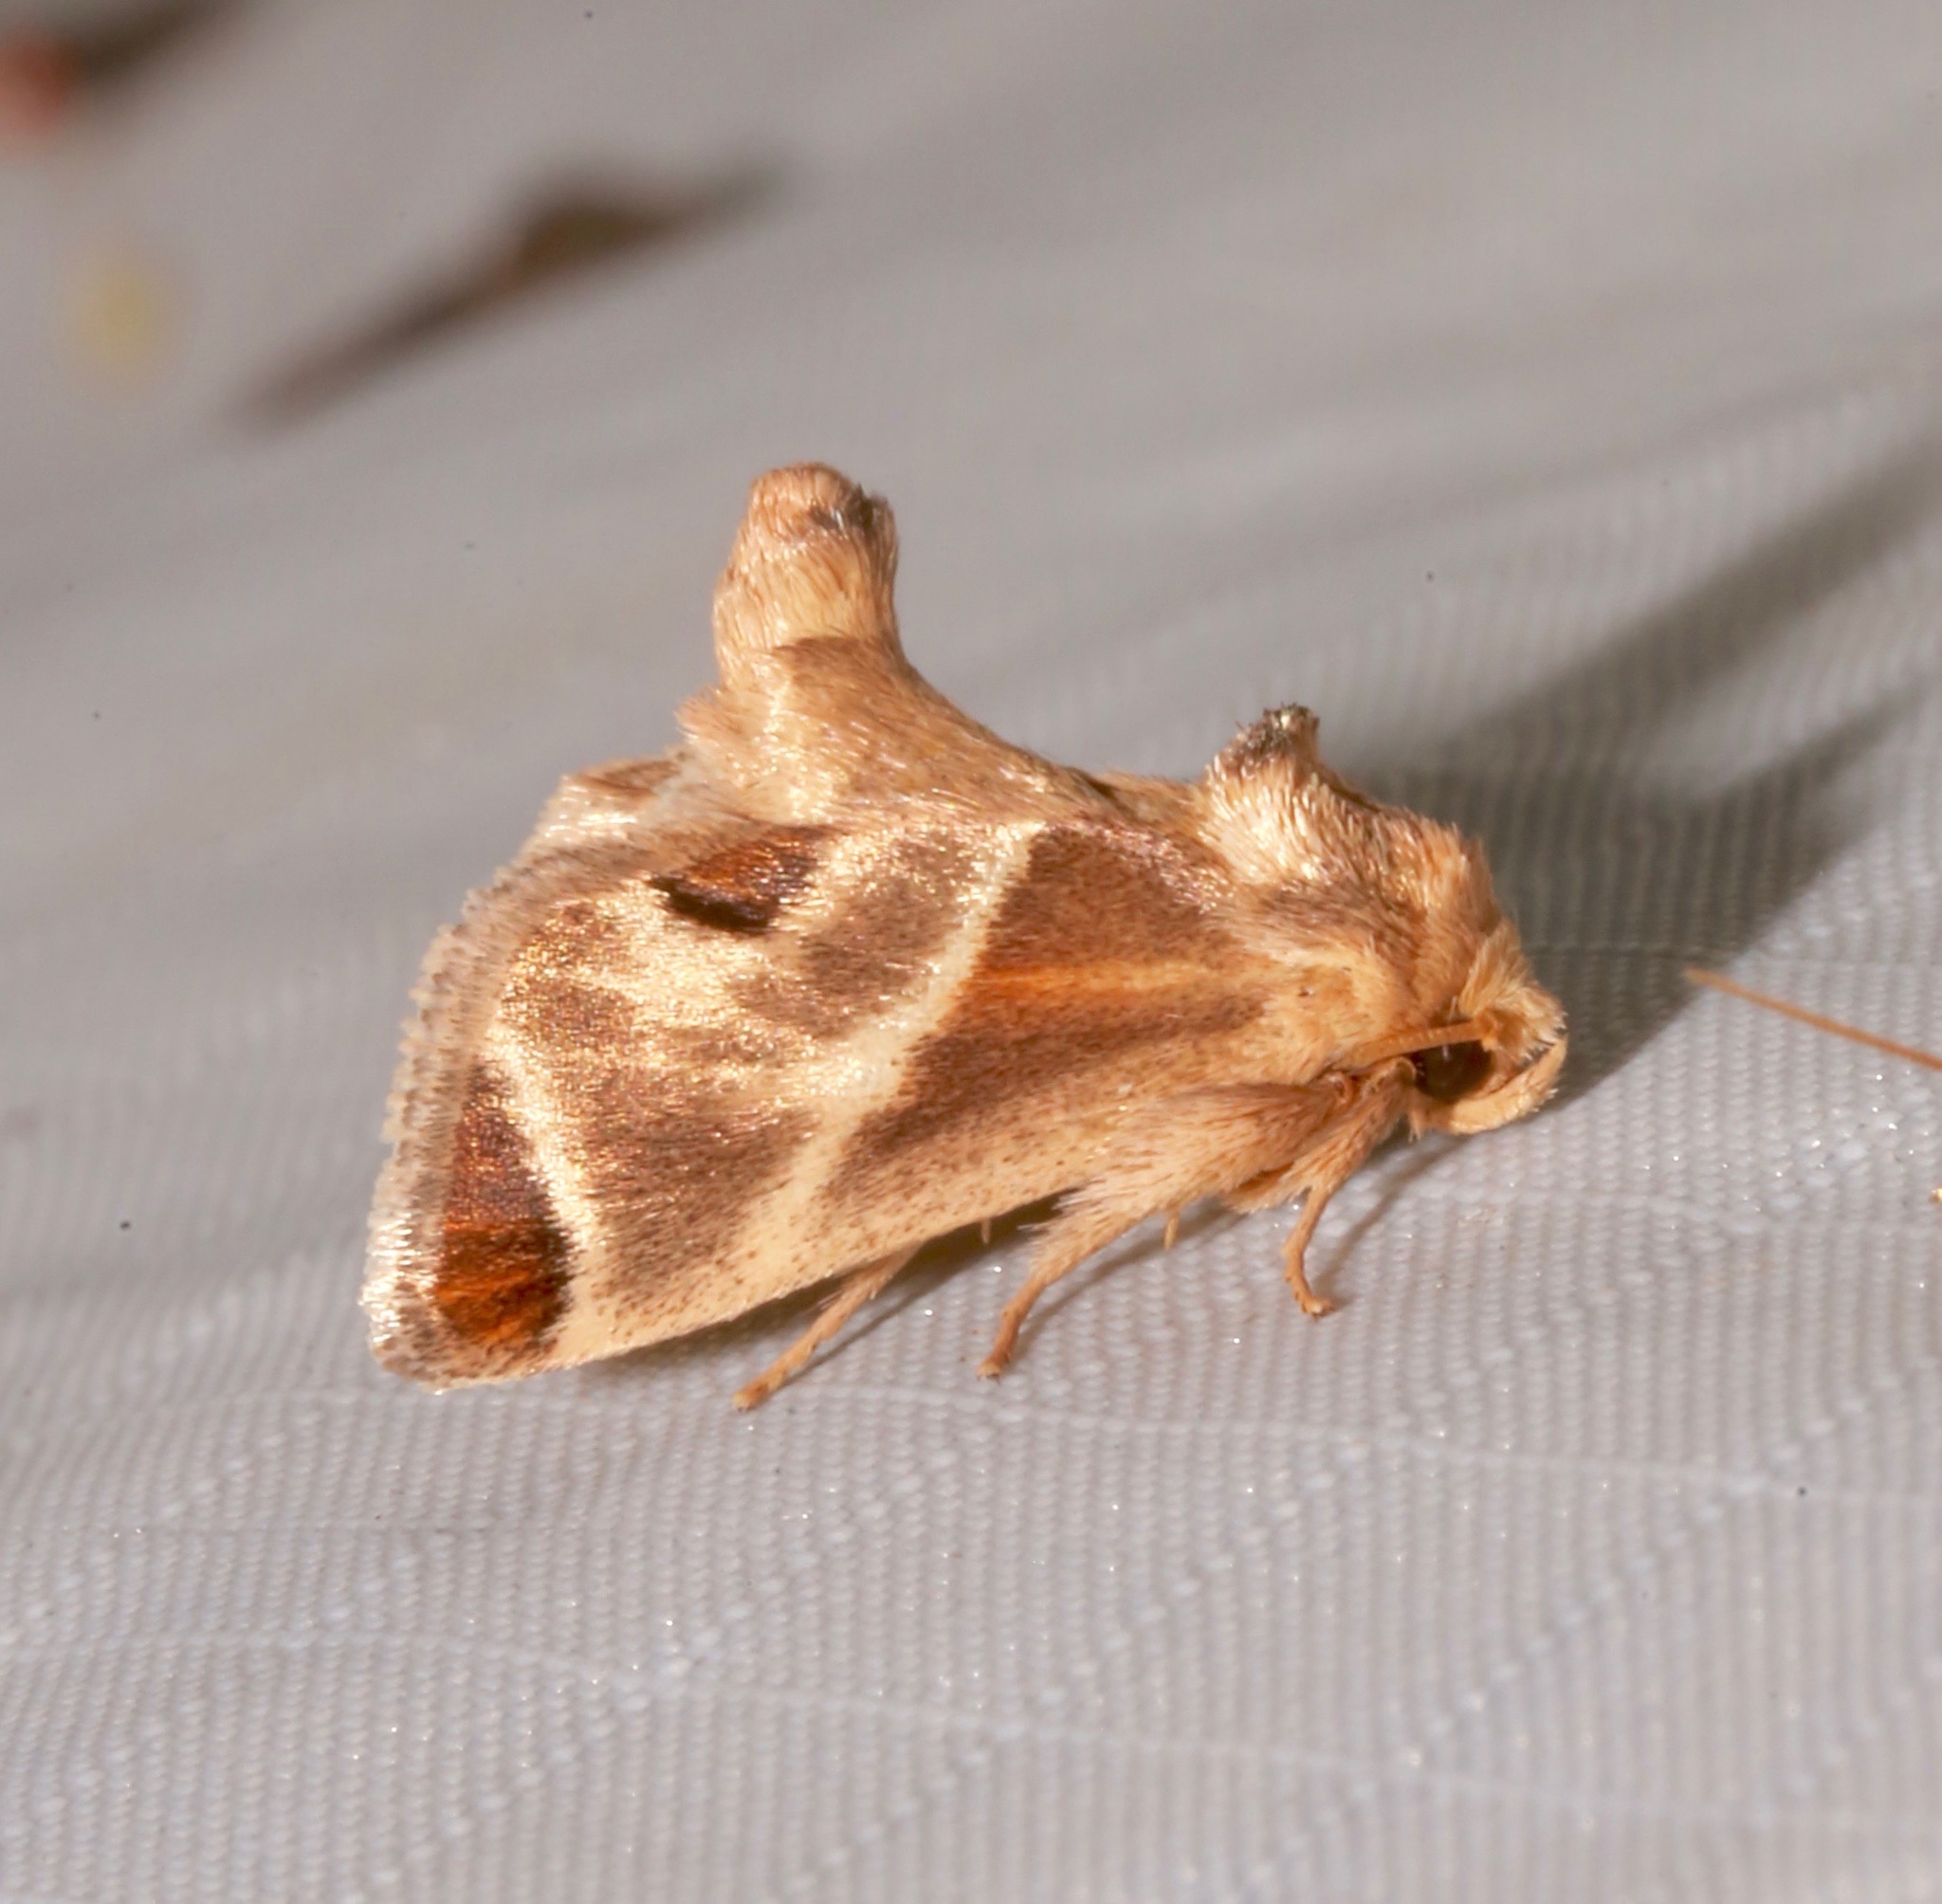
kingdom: Animalia
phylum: Arthropoda
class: Insecta
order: Lepidoptera
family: Limacodidae
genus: Apoda
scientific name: Apoda biguttata
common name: Shagreened slug moth
